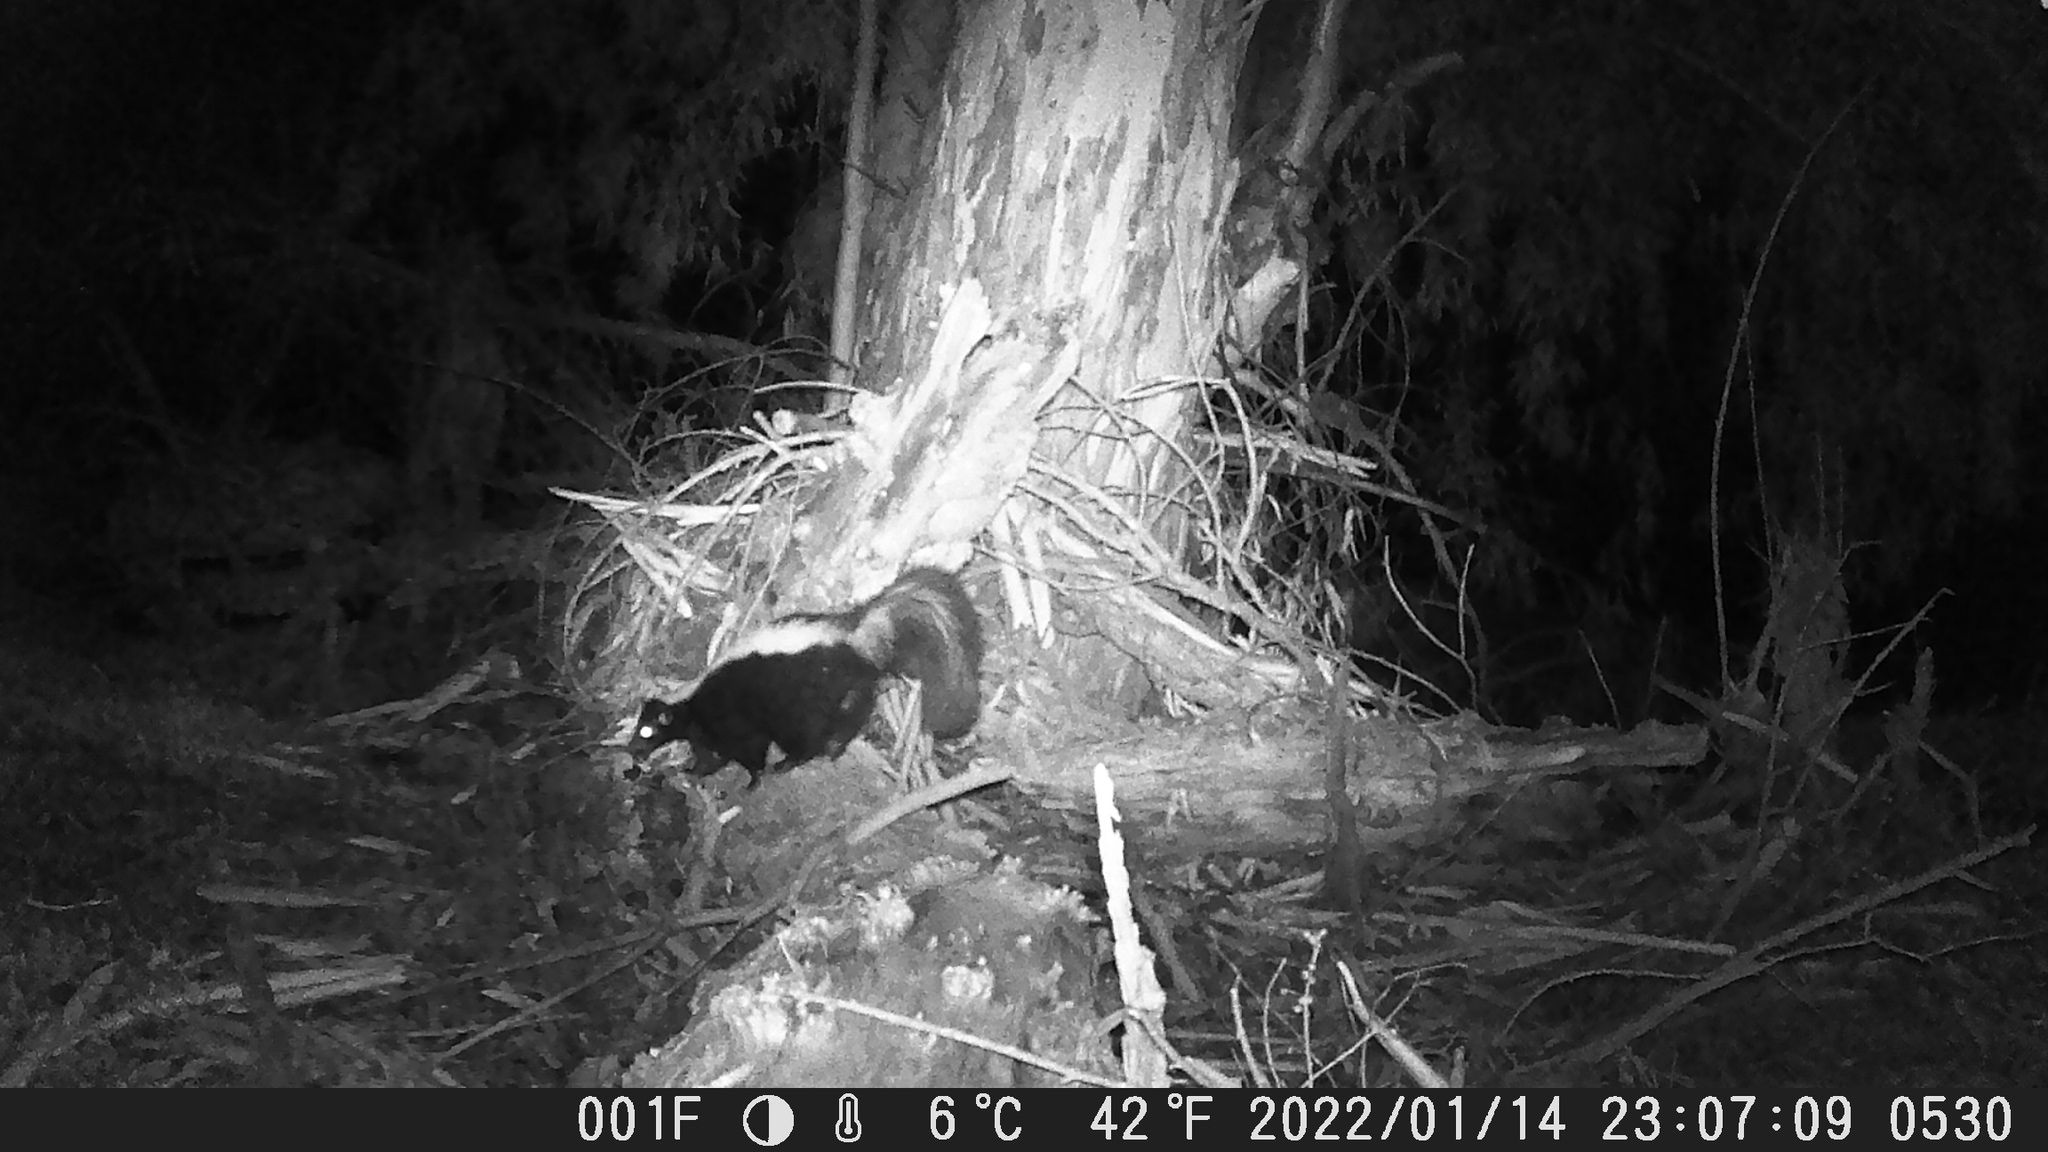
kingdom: Animalia
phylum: Chordata
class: Mammalia
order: Carnivora
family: Mephitidae
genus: Mephitis
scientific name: Mephitis mephitis
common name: Striped skunk
